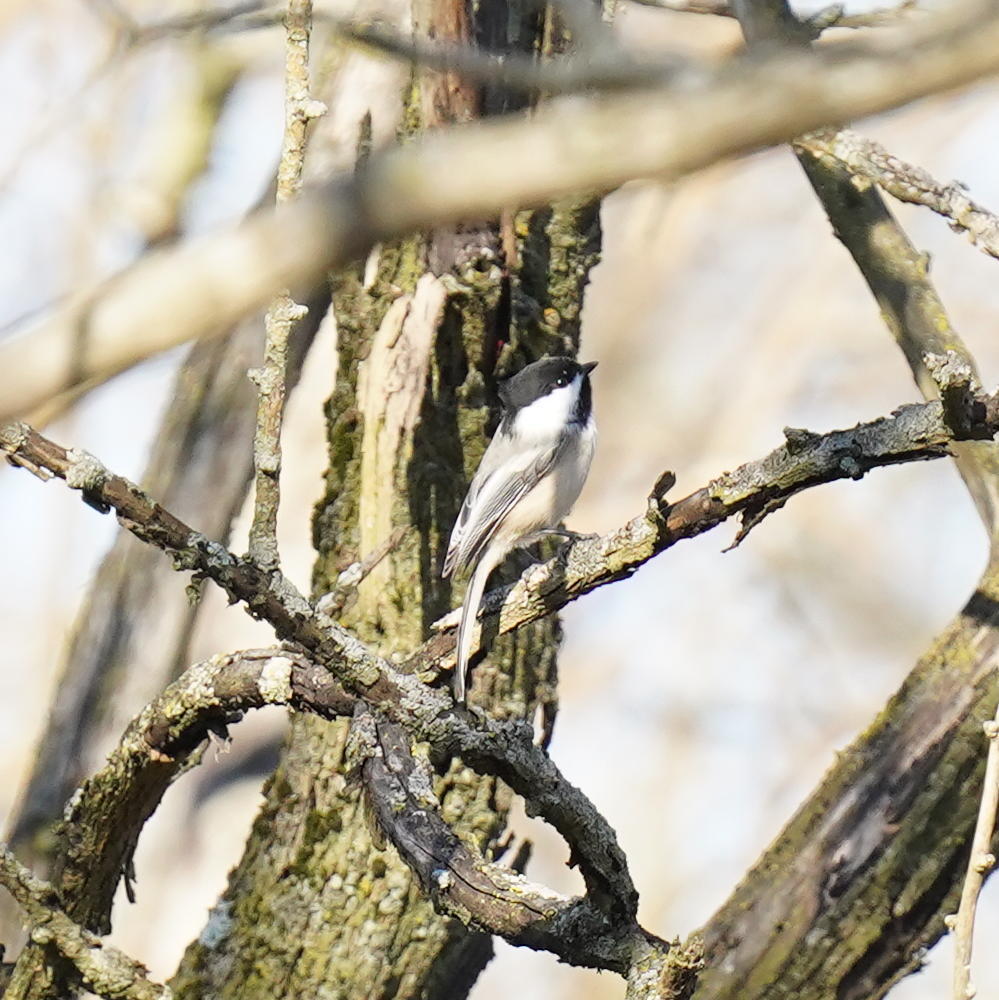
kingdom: Animalia
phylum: Chordata
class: Aves
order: Passeriformes
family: Paridae
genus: Poecile
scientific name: Poecile atricapillus
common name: Black-capped chickadee
